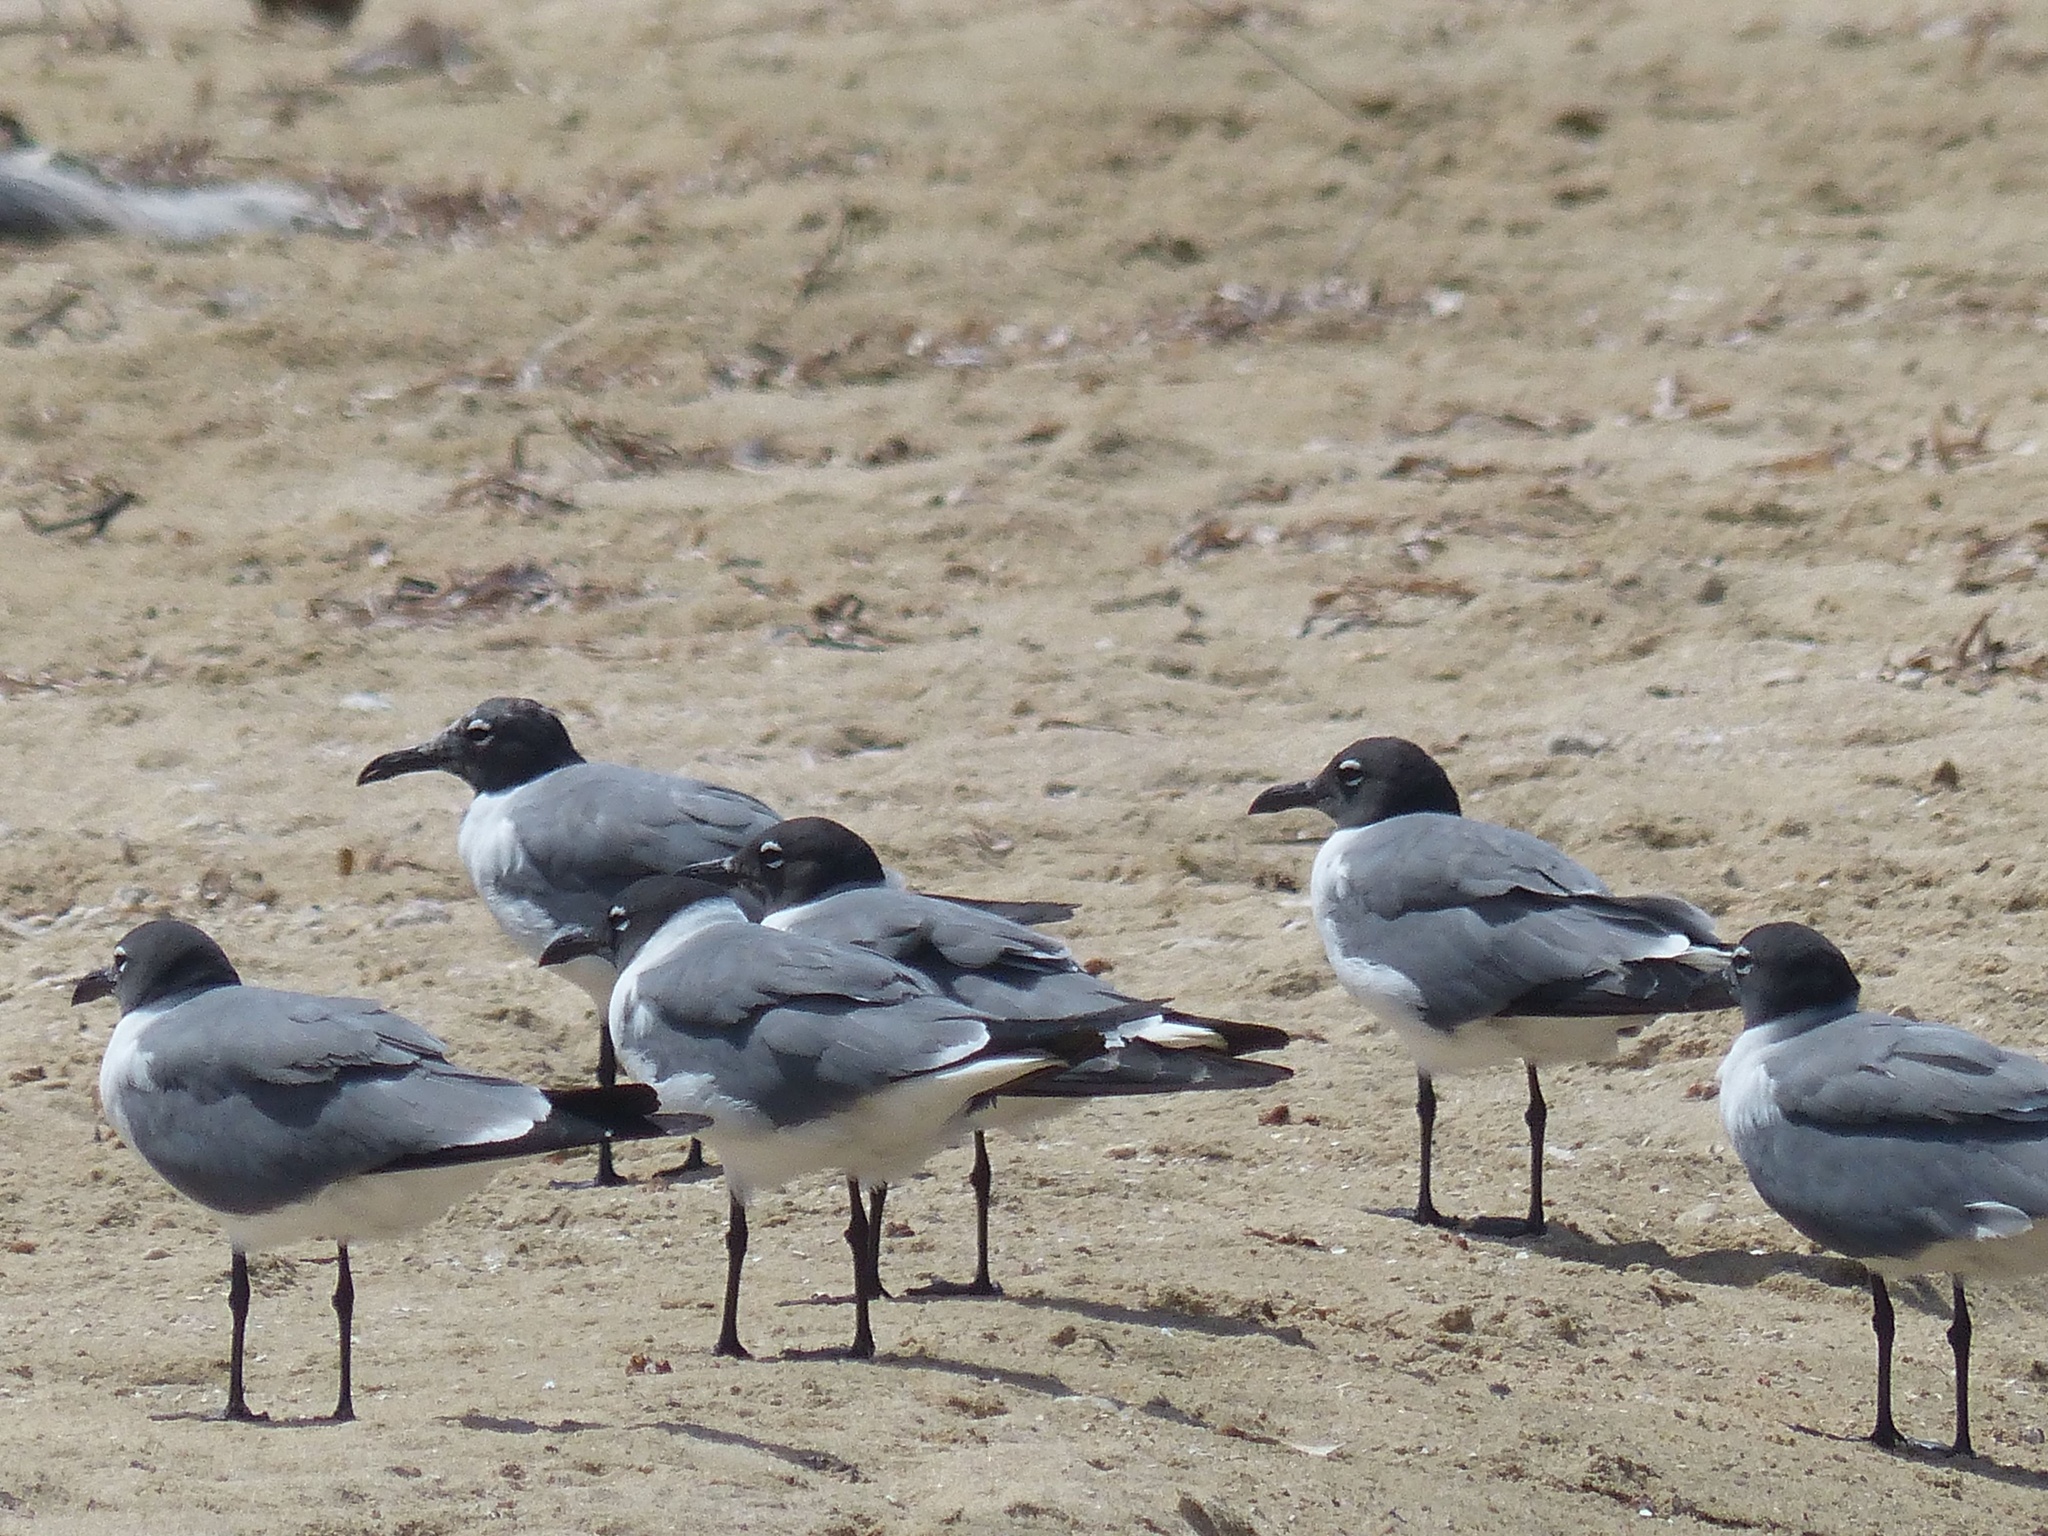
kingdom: Animalia
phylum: Chordata
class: Aves
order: Charadriiformes
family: Laridae
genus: Leucophaeus
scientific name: Leucophaeus atricilla
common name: Laughing gull
